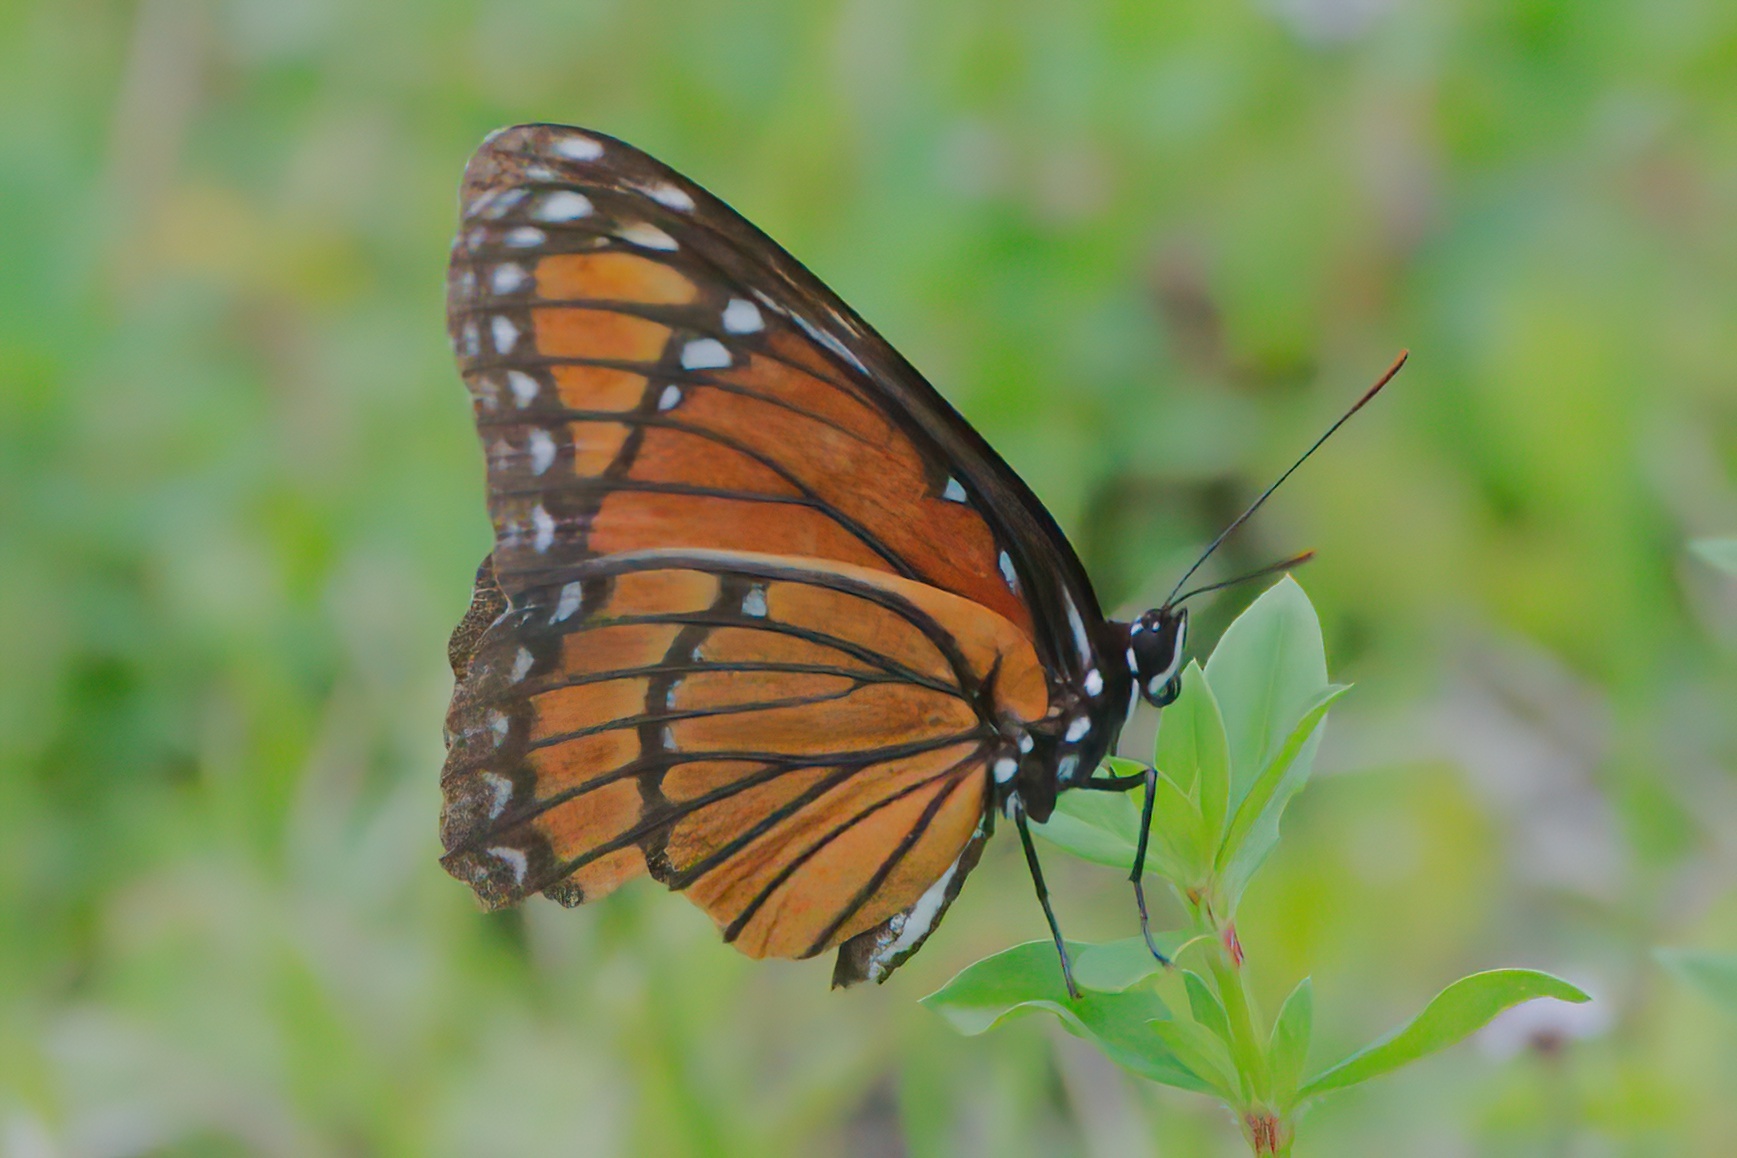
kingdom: Animalia
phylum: Arthropoda
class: Insecta
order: Lepidoptera
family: Nymphalidae
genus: Limenitis
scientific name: Limenitis archippus
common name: Viceroy
